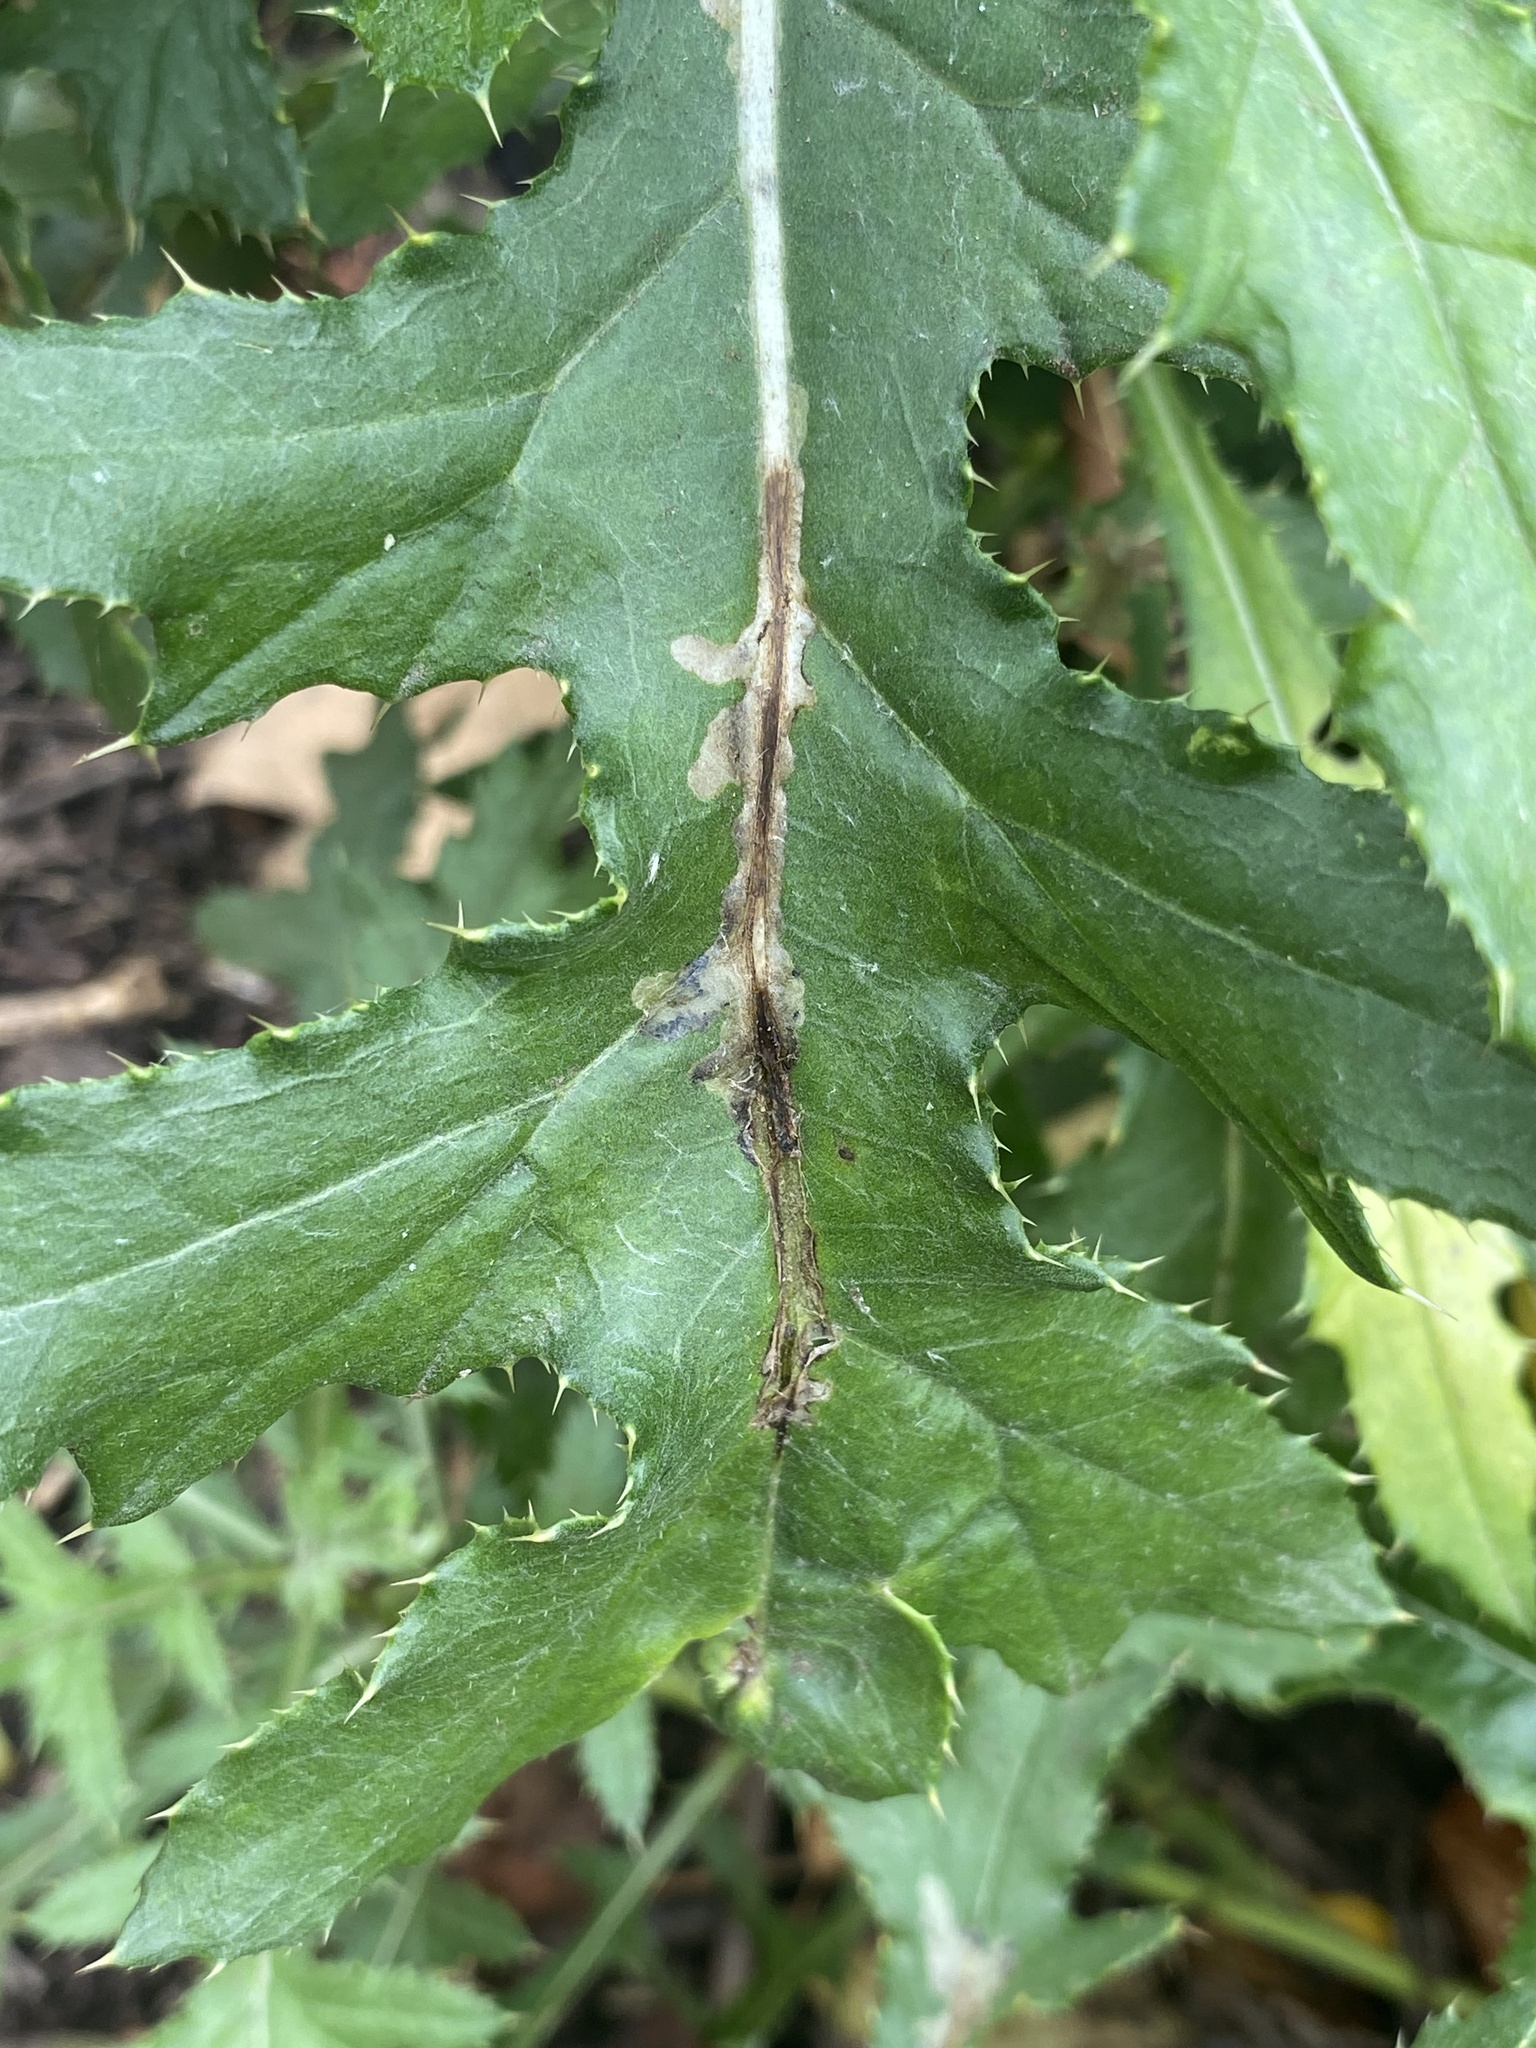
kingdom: Animalia
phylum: Arthropoda
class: Insecta
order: Lepidoptera
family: Gelechiidae
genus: Scrobipalpa
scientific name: Scrobipalpa acuminatella
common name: Pointed groundling
